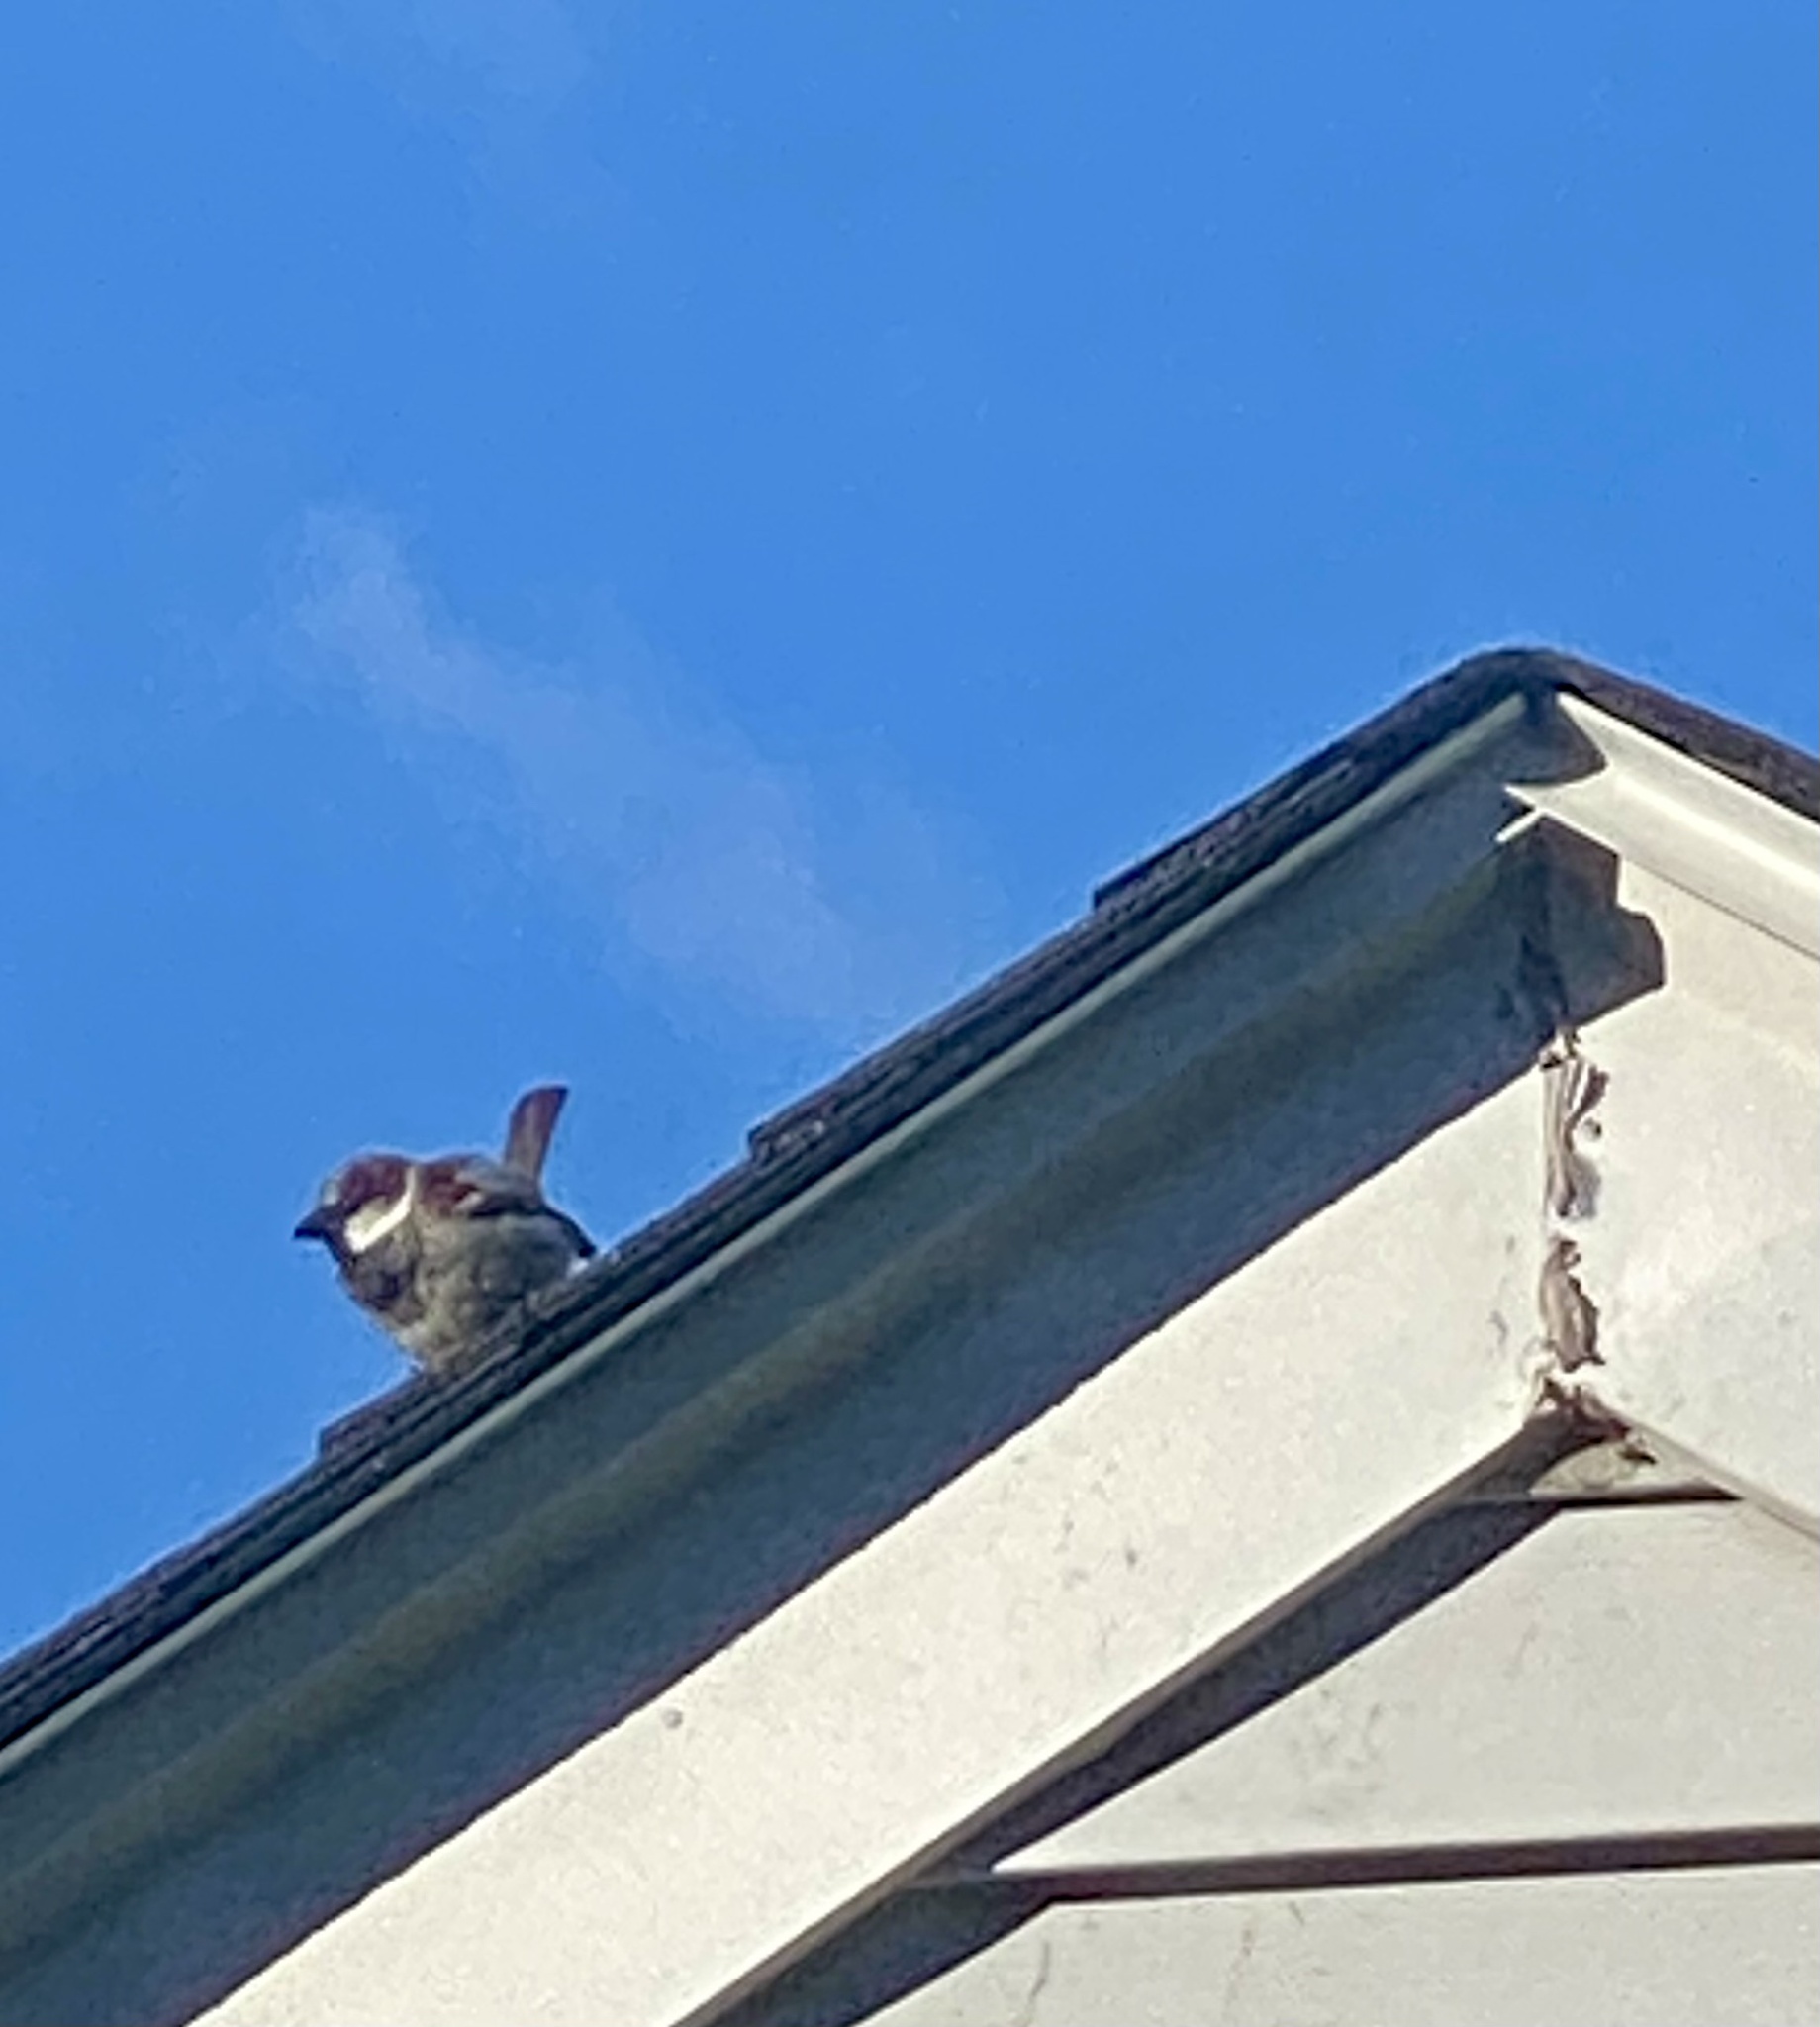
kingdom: Animalia
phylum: Chordata
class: Aves
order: Passeriformes
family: Passeridae
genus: Passer
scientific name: Passer domesticus
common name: House sparrow
